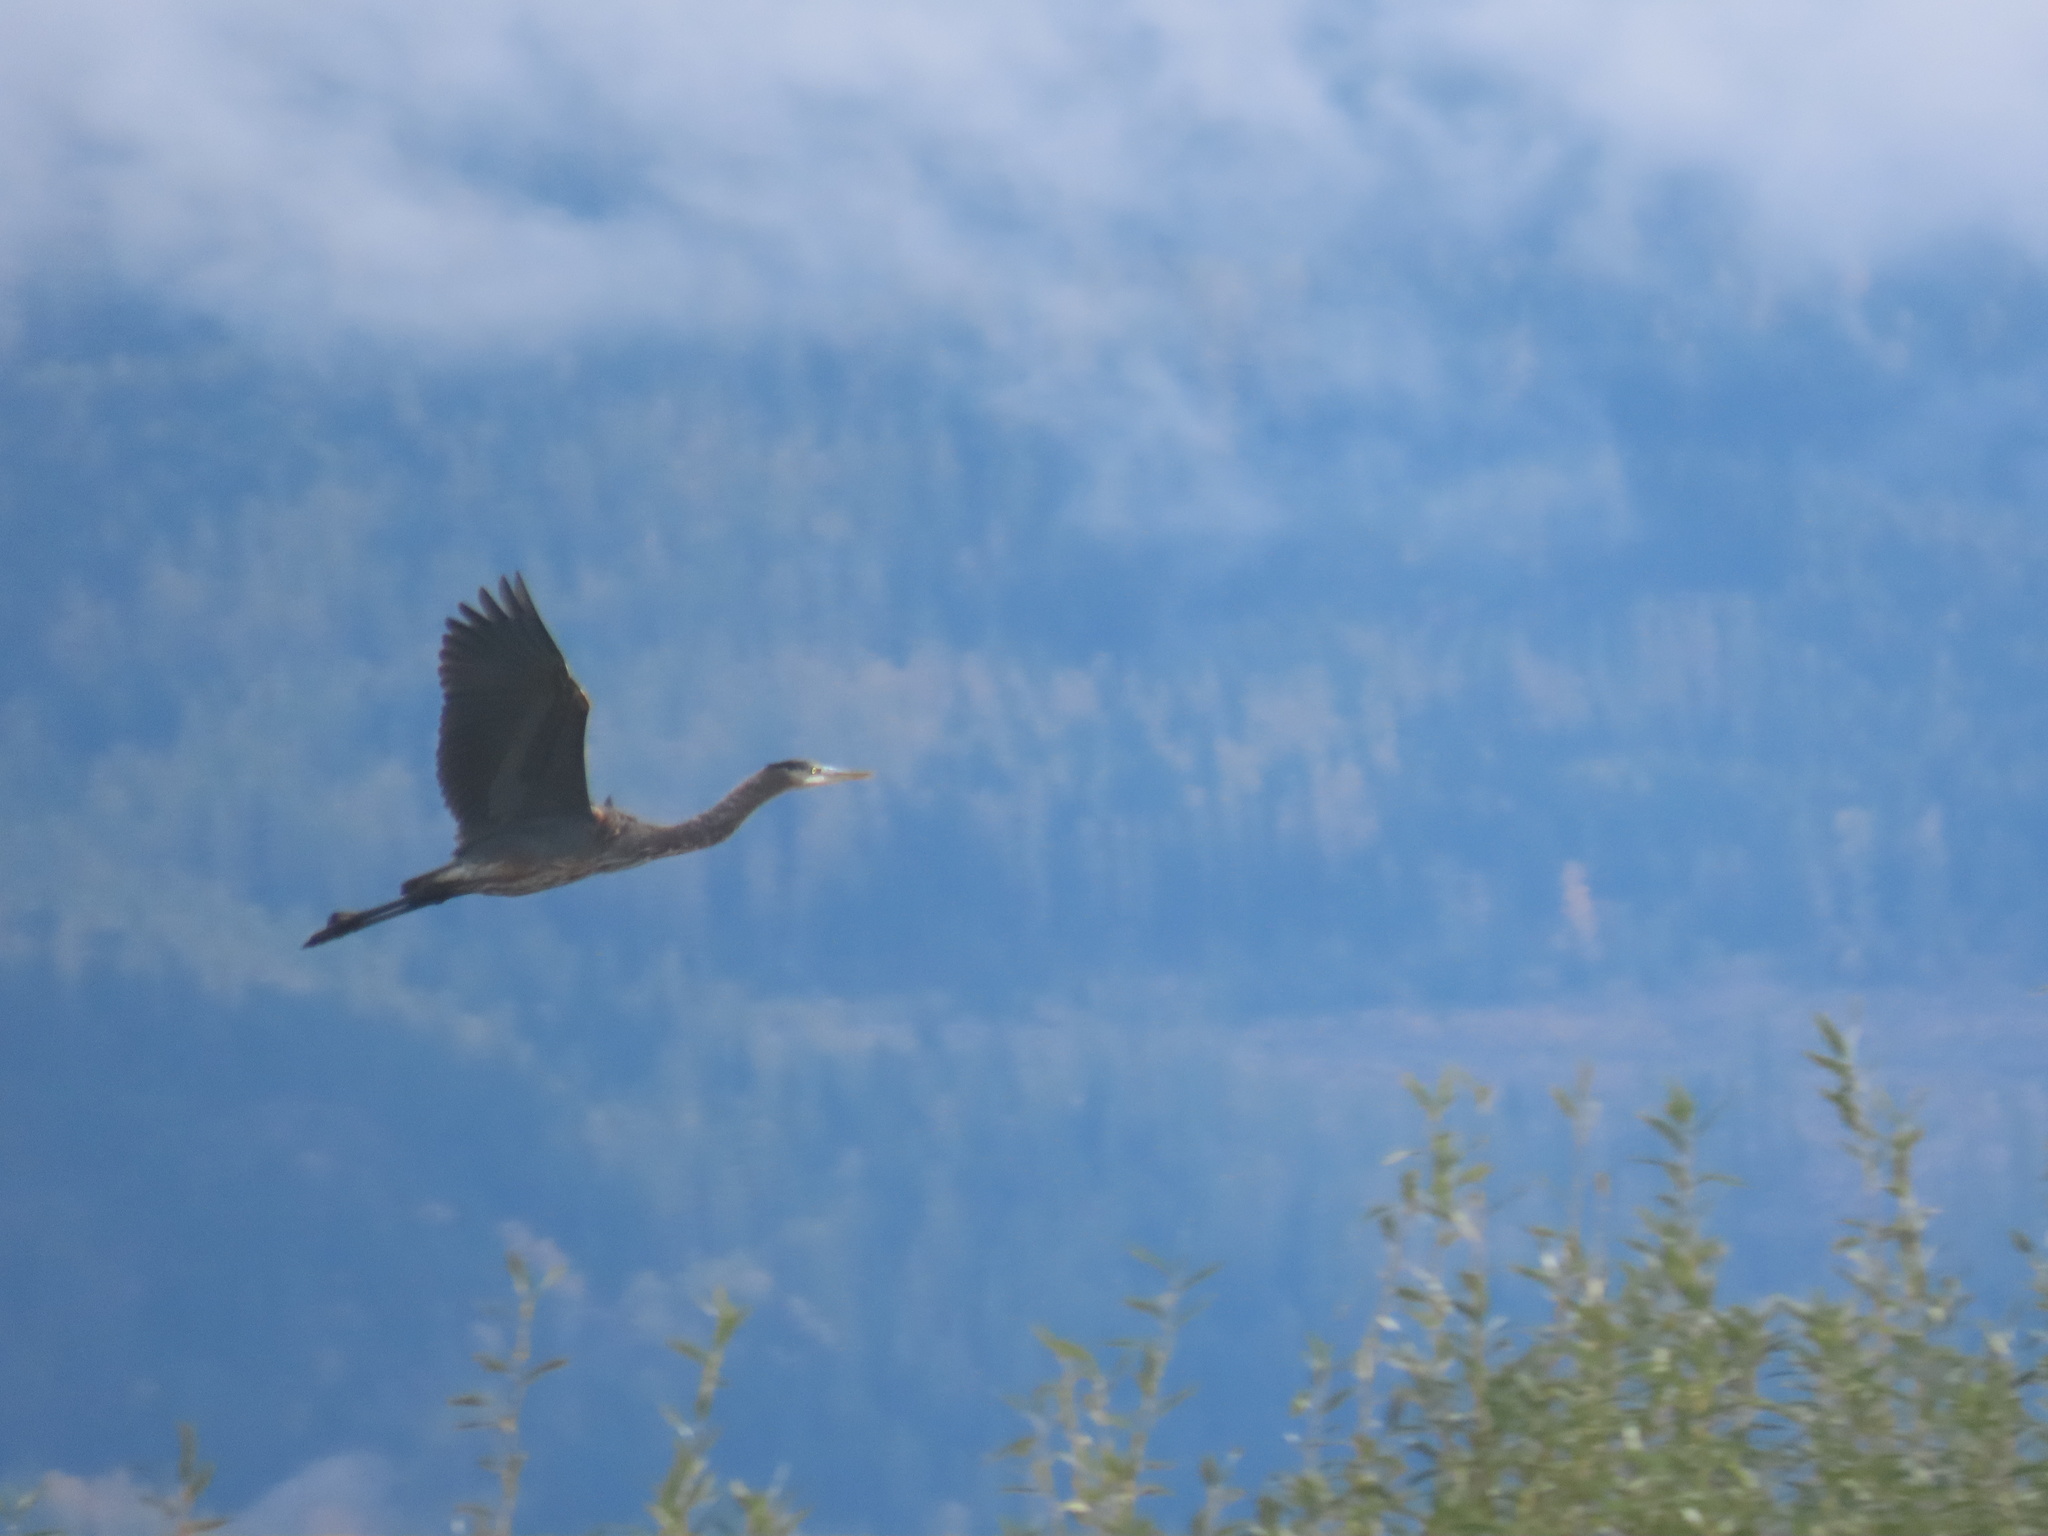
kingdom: Animalia
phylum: Chordata
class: Aves
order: Pelecaniformes
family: Ardeidae
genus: Ardea
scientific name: Ardea herodias
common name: Great blue heron
